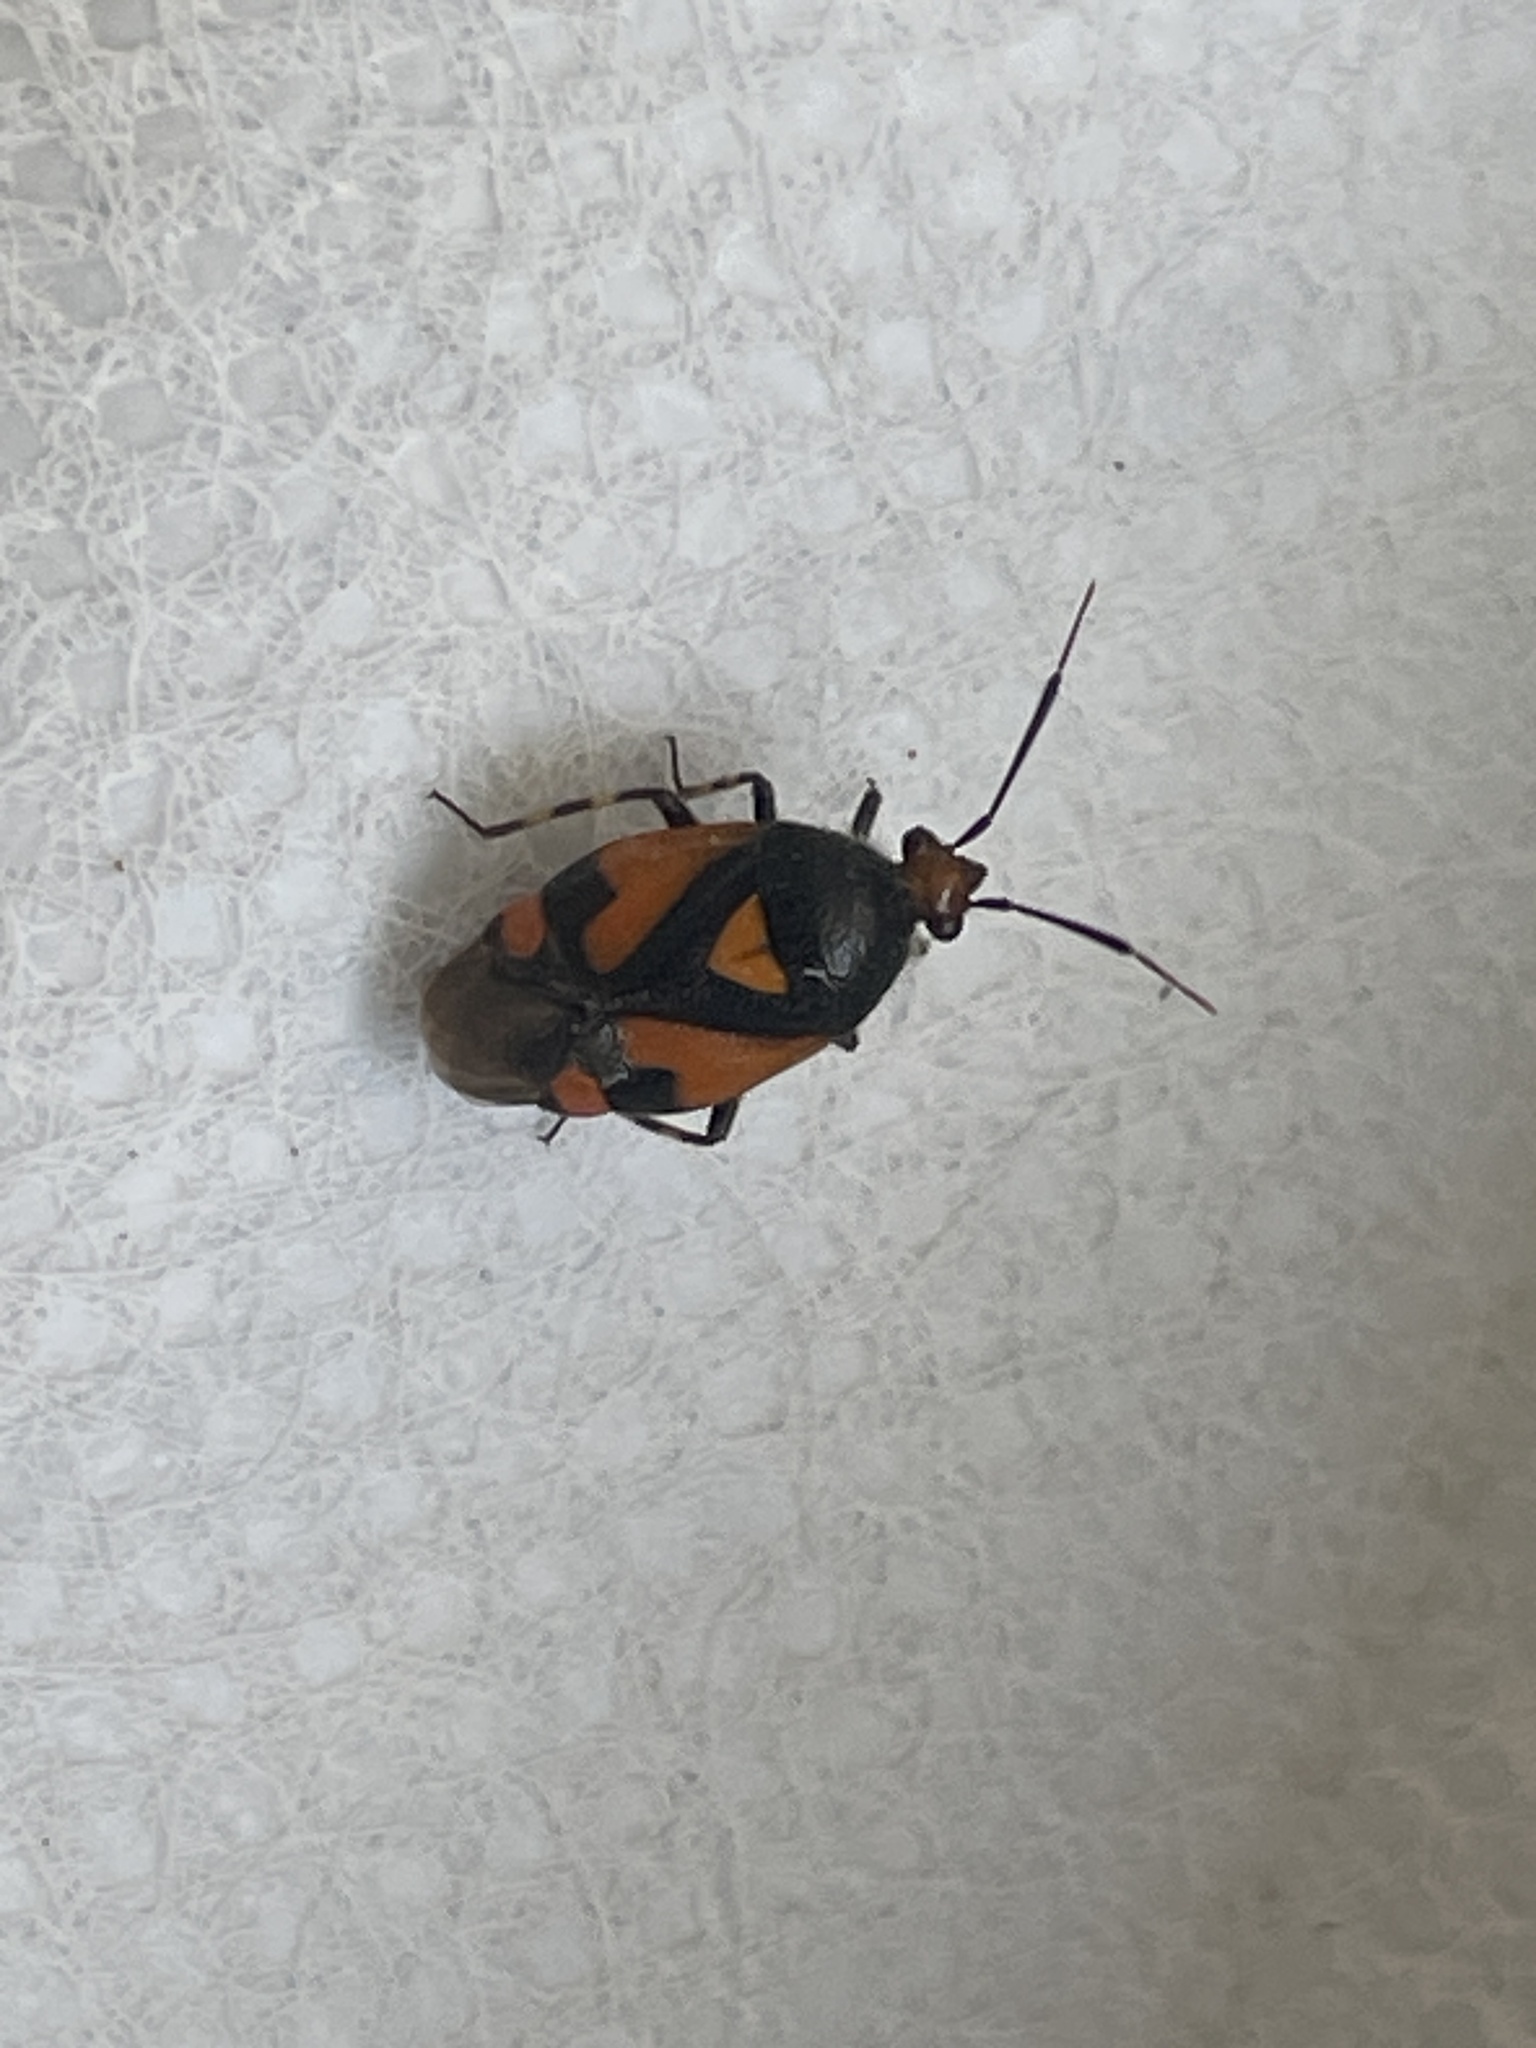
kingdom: Animalia
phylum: Arthropoda
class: Insecta
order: Hemiptera
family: Miridae
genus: Deraeocoris
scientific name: Deraeocoris schach
